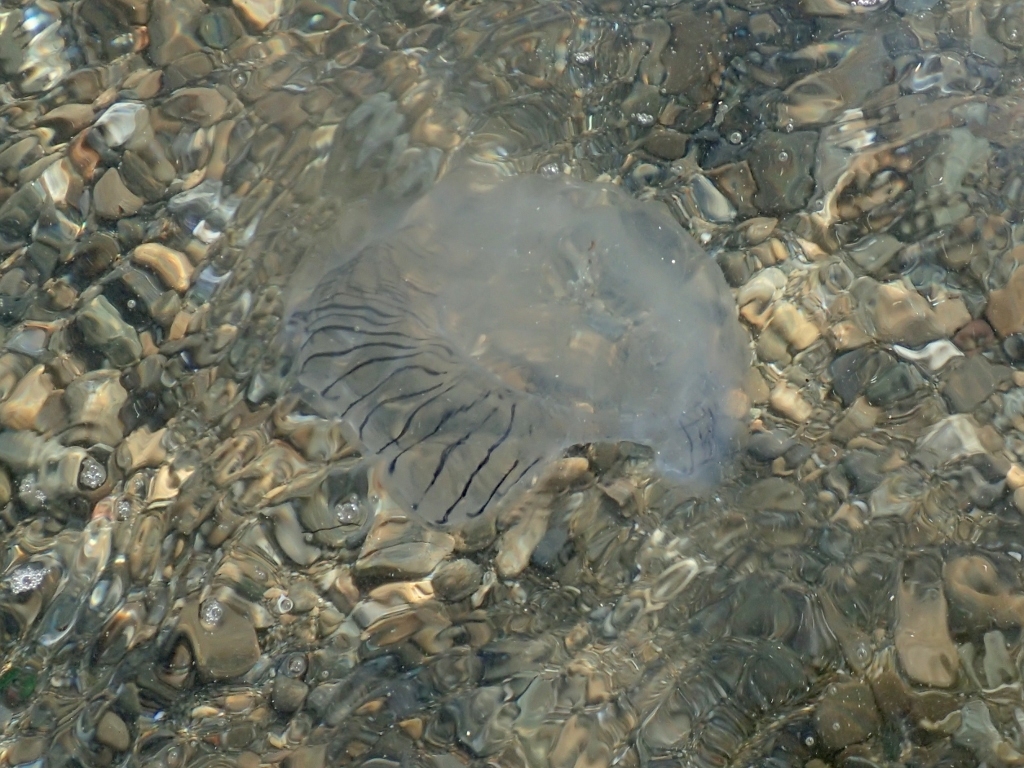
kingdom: Animalia
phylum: Cnidaria
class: Hydrozoa
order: Leptothecata
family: Aequoreidae
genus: Aequorea
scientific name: Aequorea forskalea
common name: Many-ribbed jellyfish
